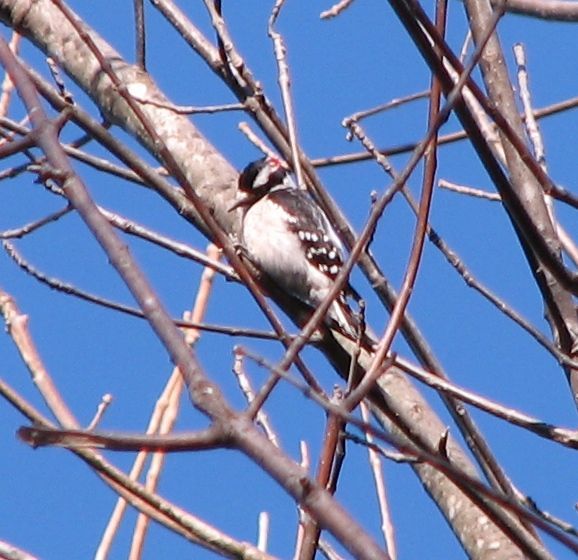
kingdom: Animalia
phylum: Chordata
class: Aves
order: Piciformes
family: Picidae
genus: Dryobates
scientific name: Dryobates pubescens
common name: Downy woodpecker
